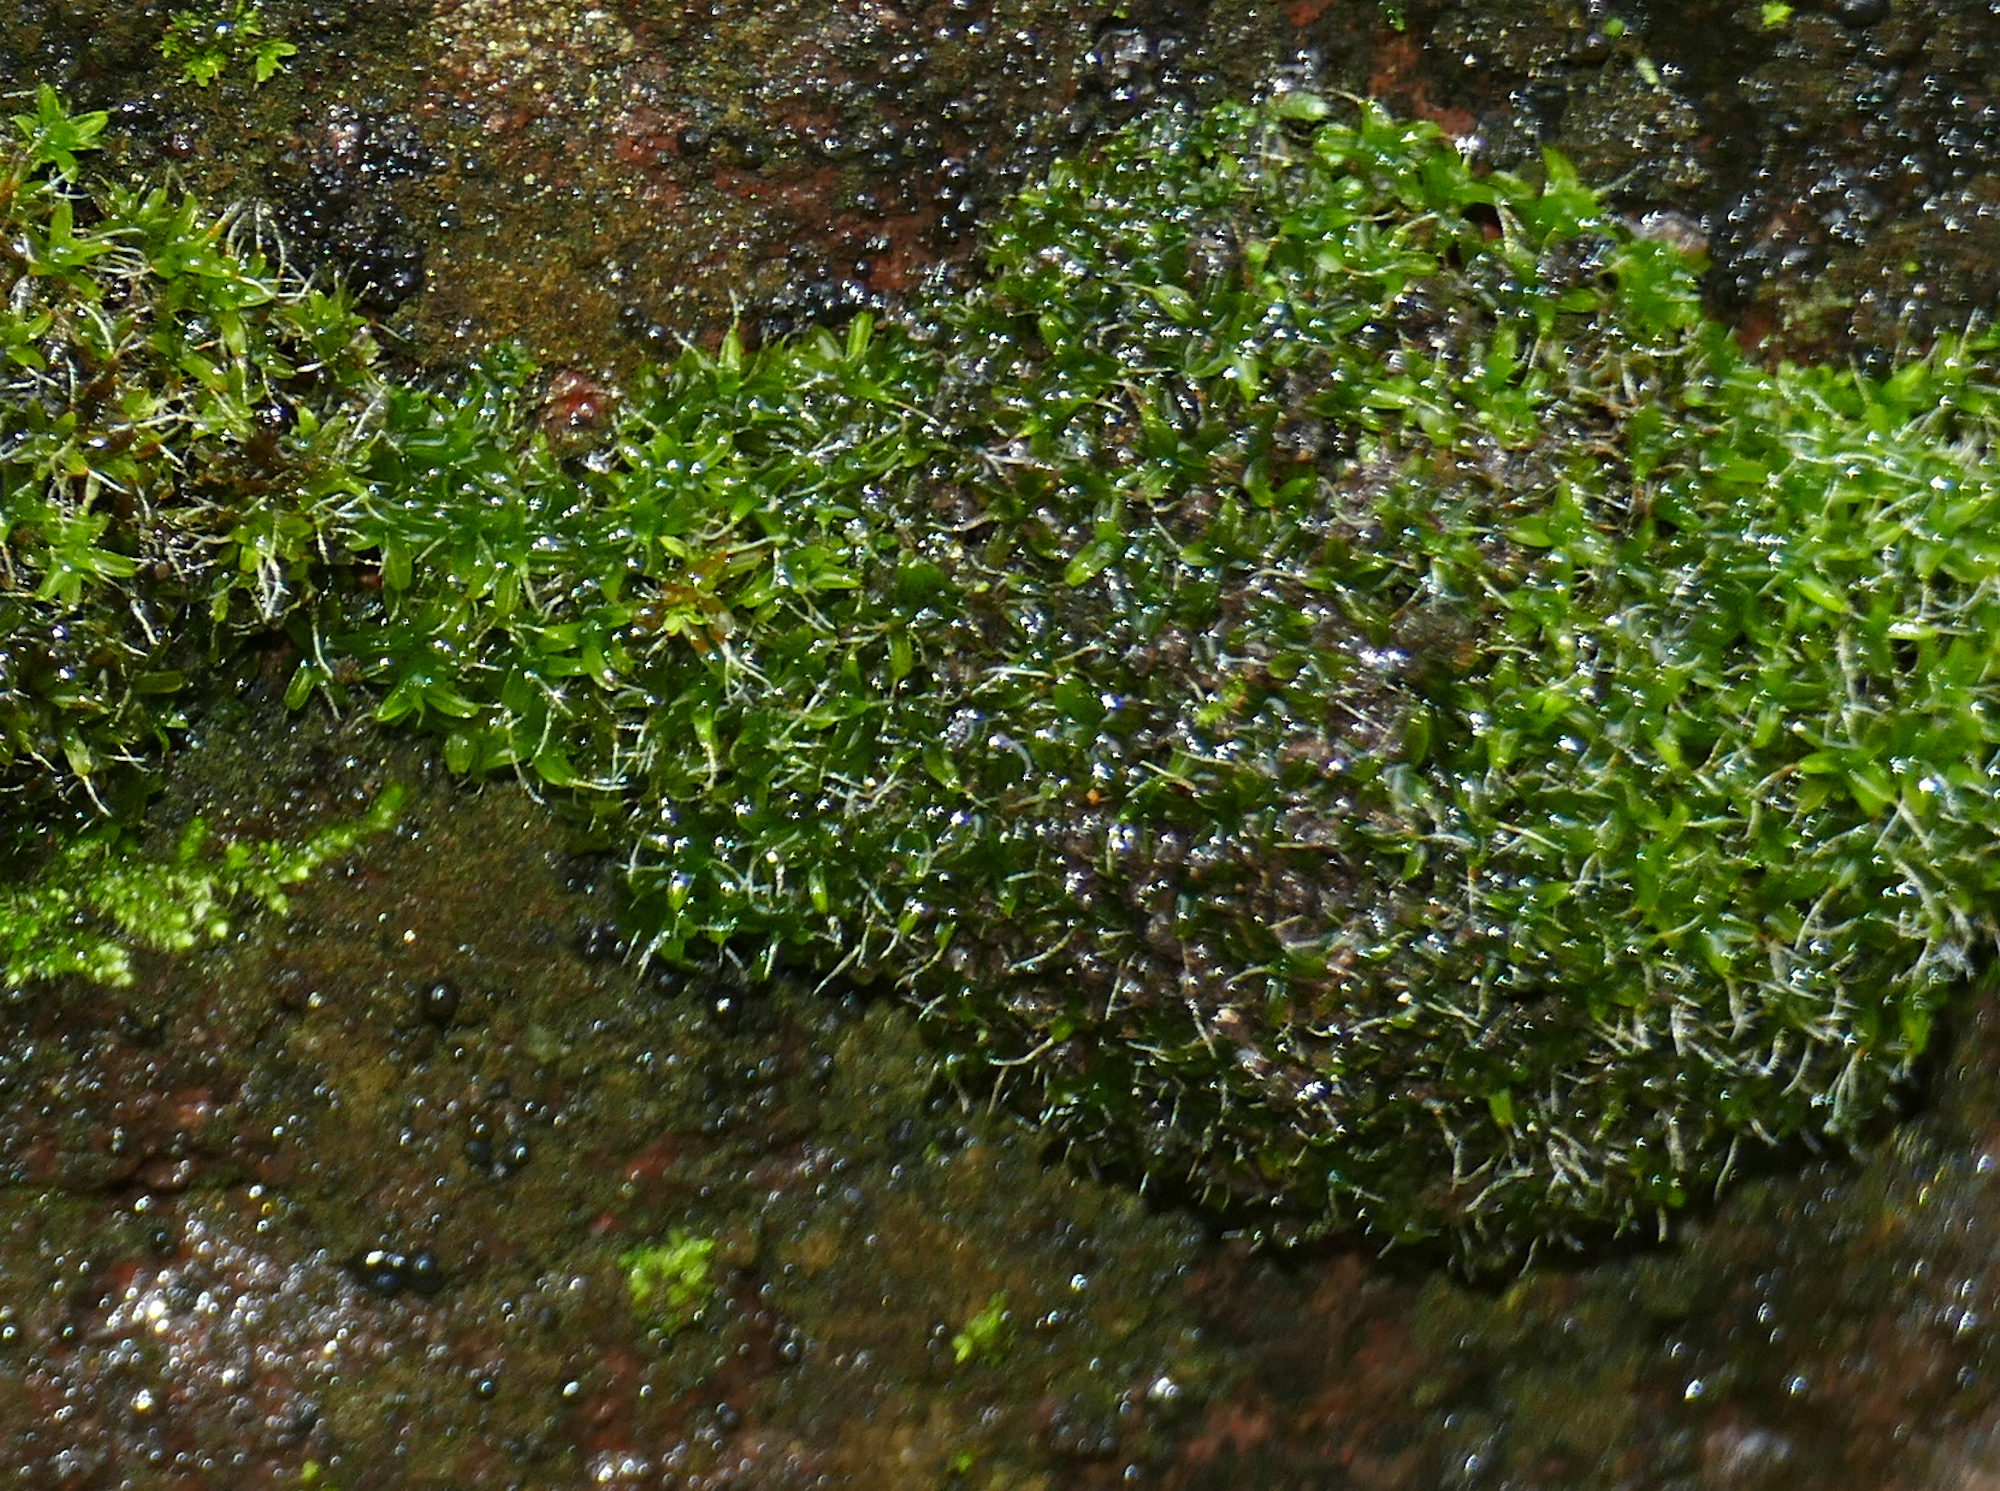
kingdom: Plantae
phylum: Bryophyta
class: Bryopsida
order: Pottiales
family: Pottiaceae
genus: Syntrichia
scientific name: Syntrichia ruralis
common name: Sidewalk screw moss
